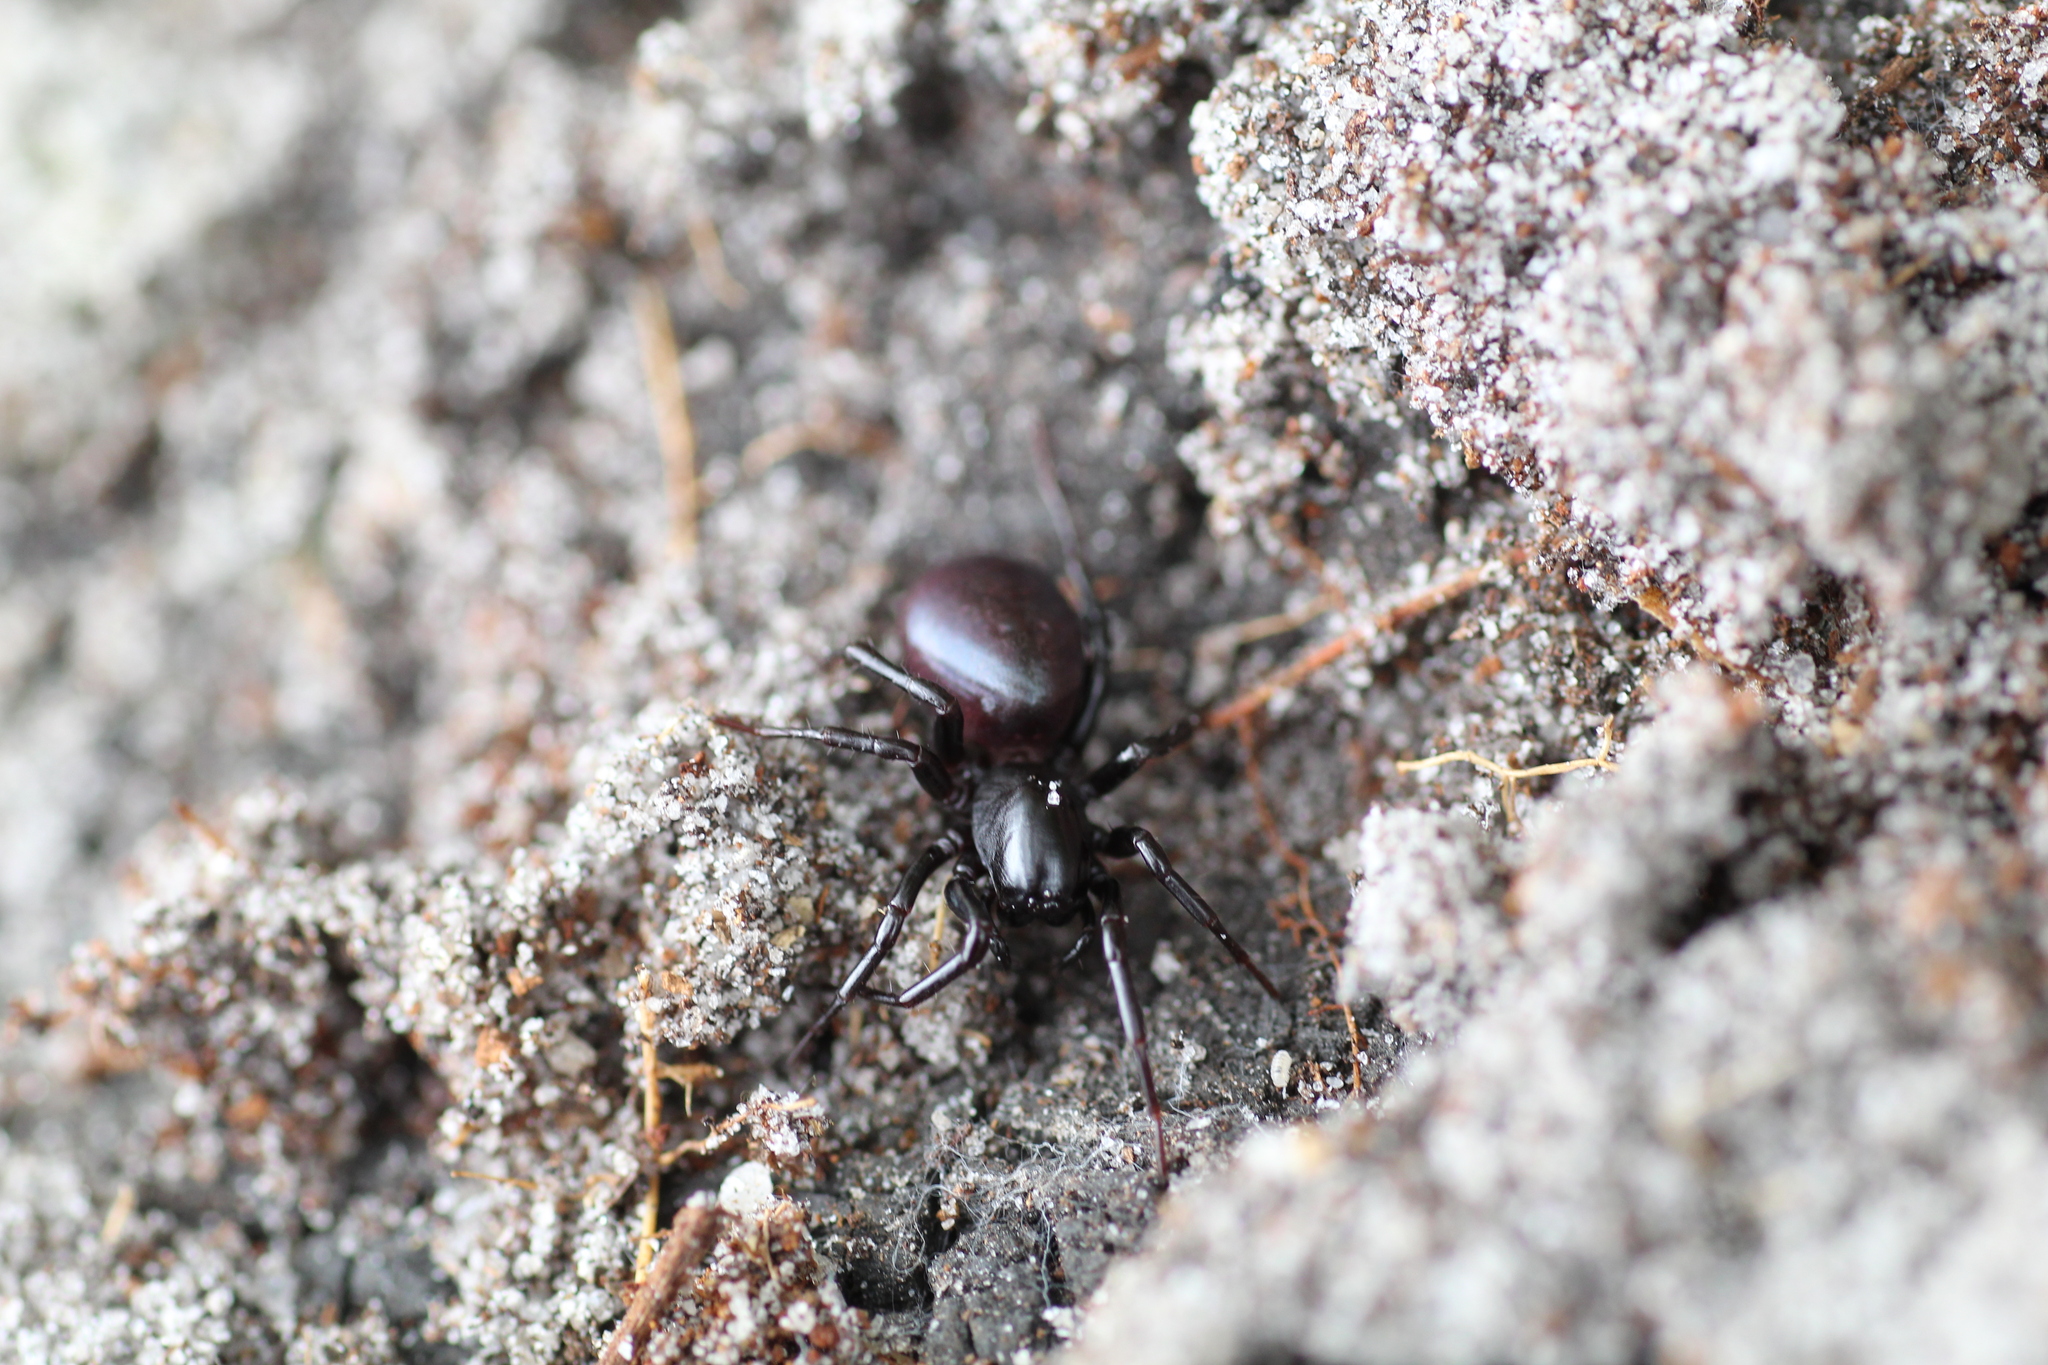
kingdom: Animalia
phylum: Arthropoda
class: Arachnida
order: Araneae
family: Zodariidae
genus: Storosa
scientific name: Storosa tetrica
